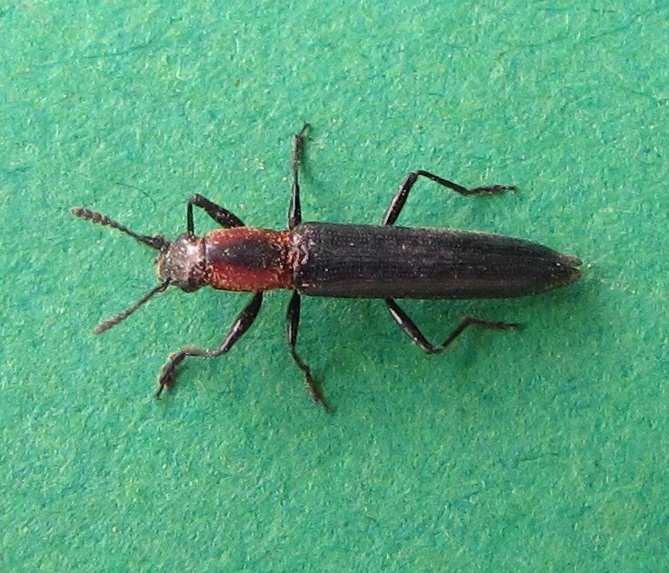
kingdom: Animalia
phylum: Arthropoda
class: Insecta
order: Coleoptera
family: Erotylidae
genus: Acropteroxys
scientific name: Acropteroxys gracilis
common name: Slender lizard beetle
